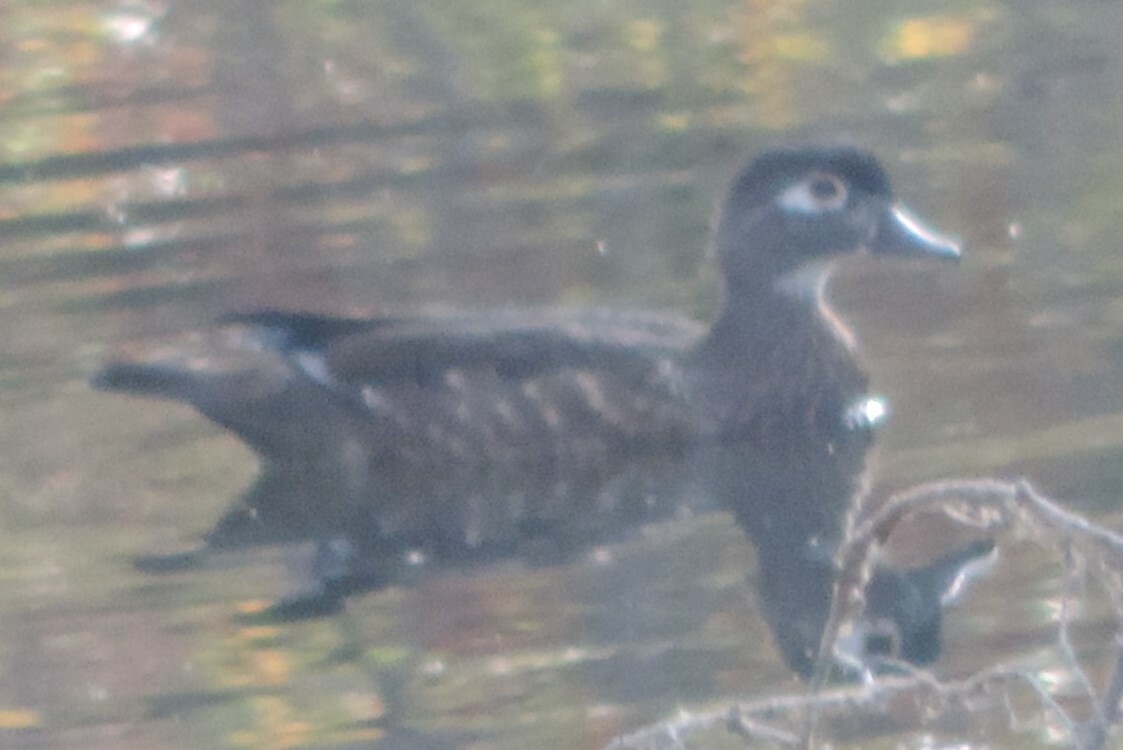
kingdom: Animalia
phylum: Chordata
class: Aves
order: Anseriformes
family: Anatidae
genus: Aix
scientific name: Aix sponsa
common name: Wood duck
